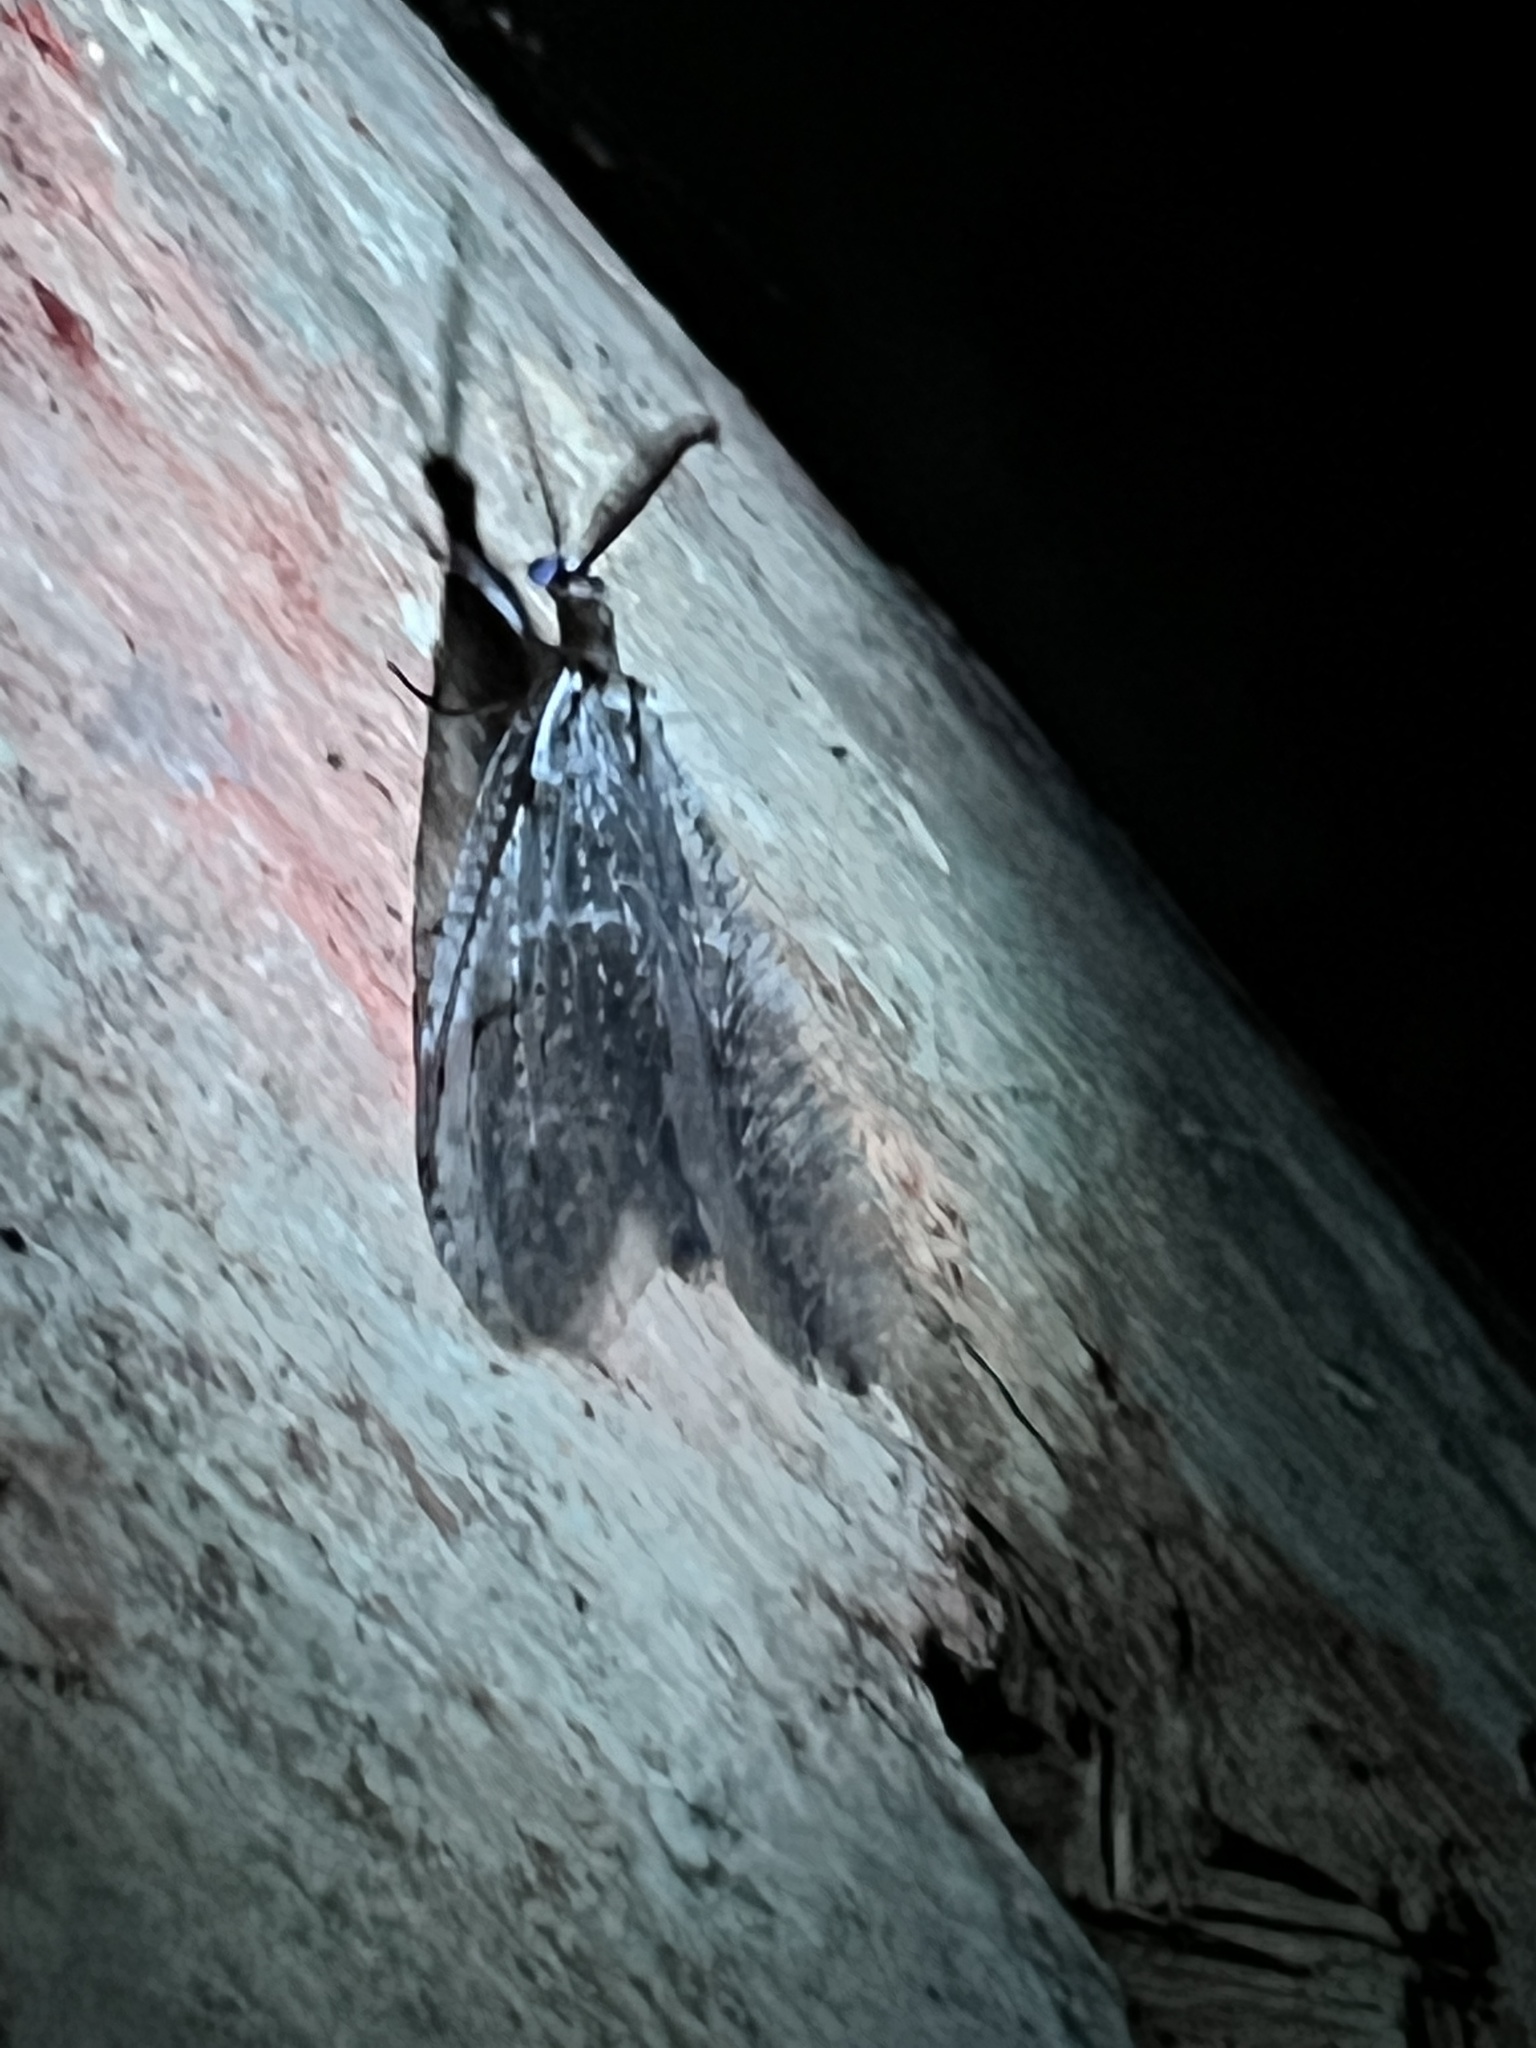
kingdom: Animalia
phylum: Arthropoda
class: Insecta
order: Megaloptera
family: Corydalidae
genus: Chauliodes
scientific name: Chauliodes rastricornis
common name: Spring fishfly
